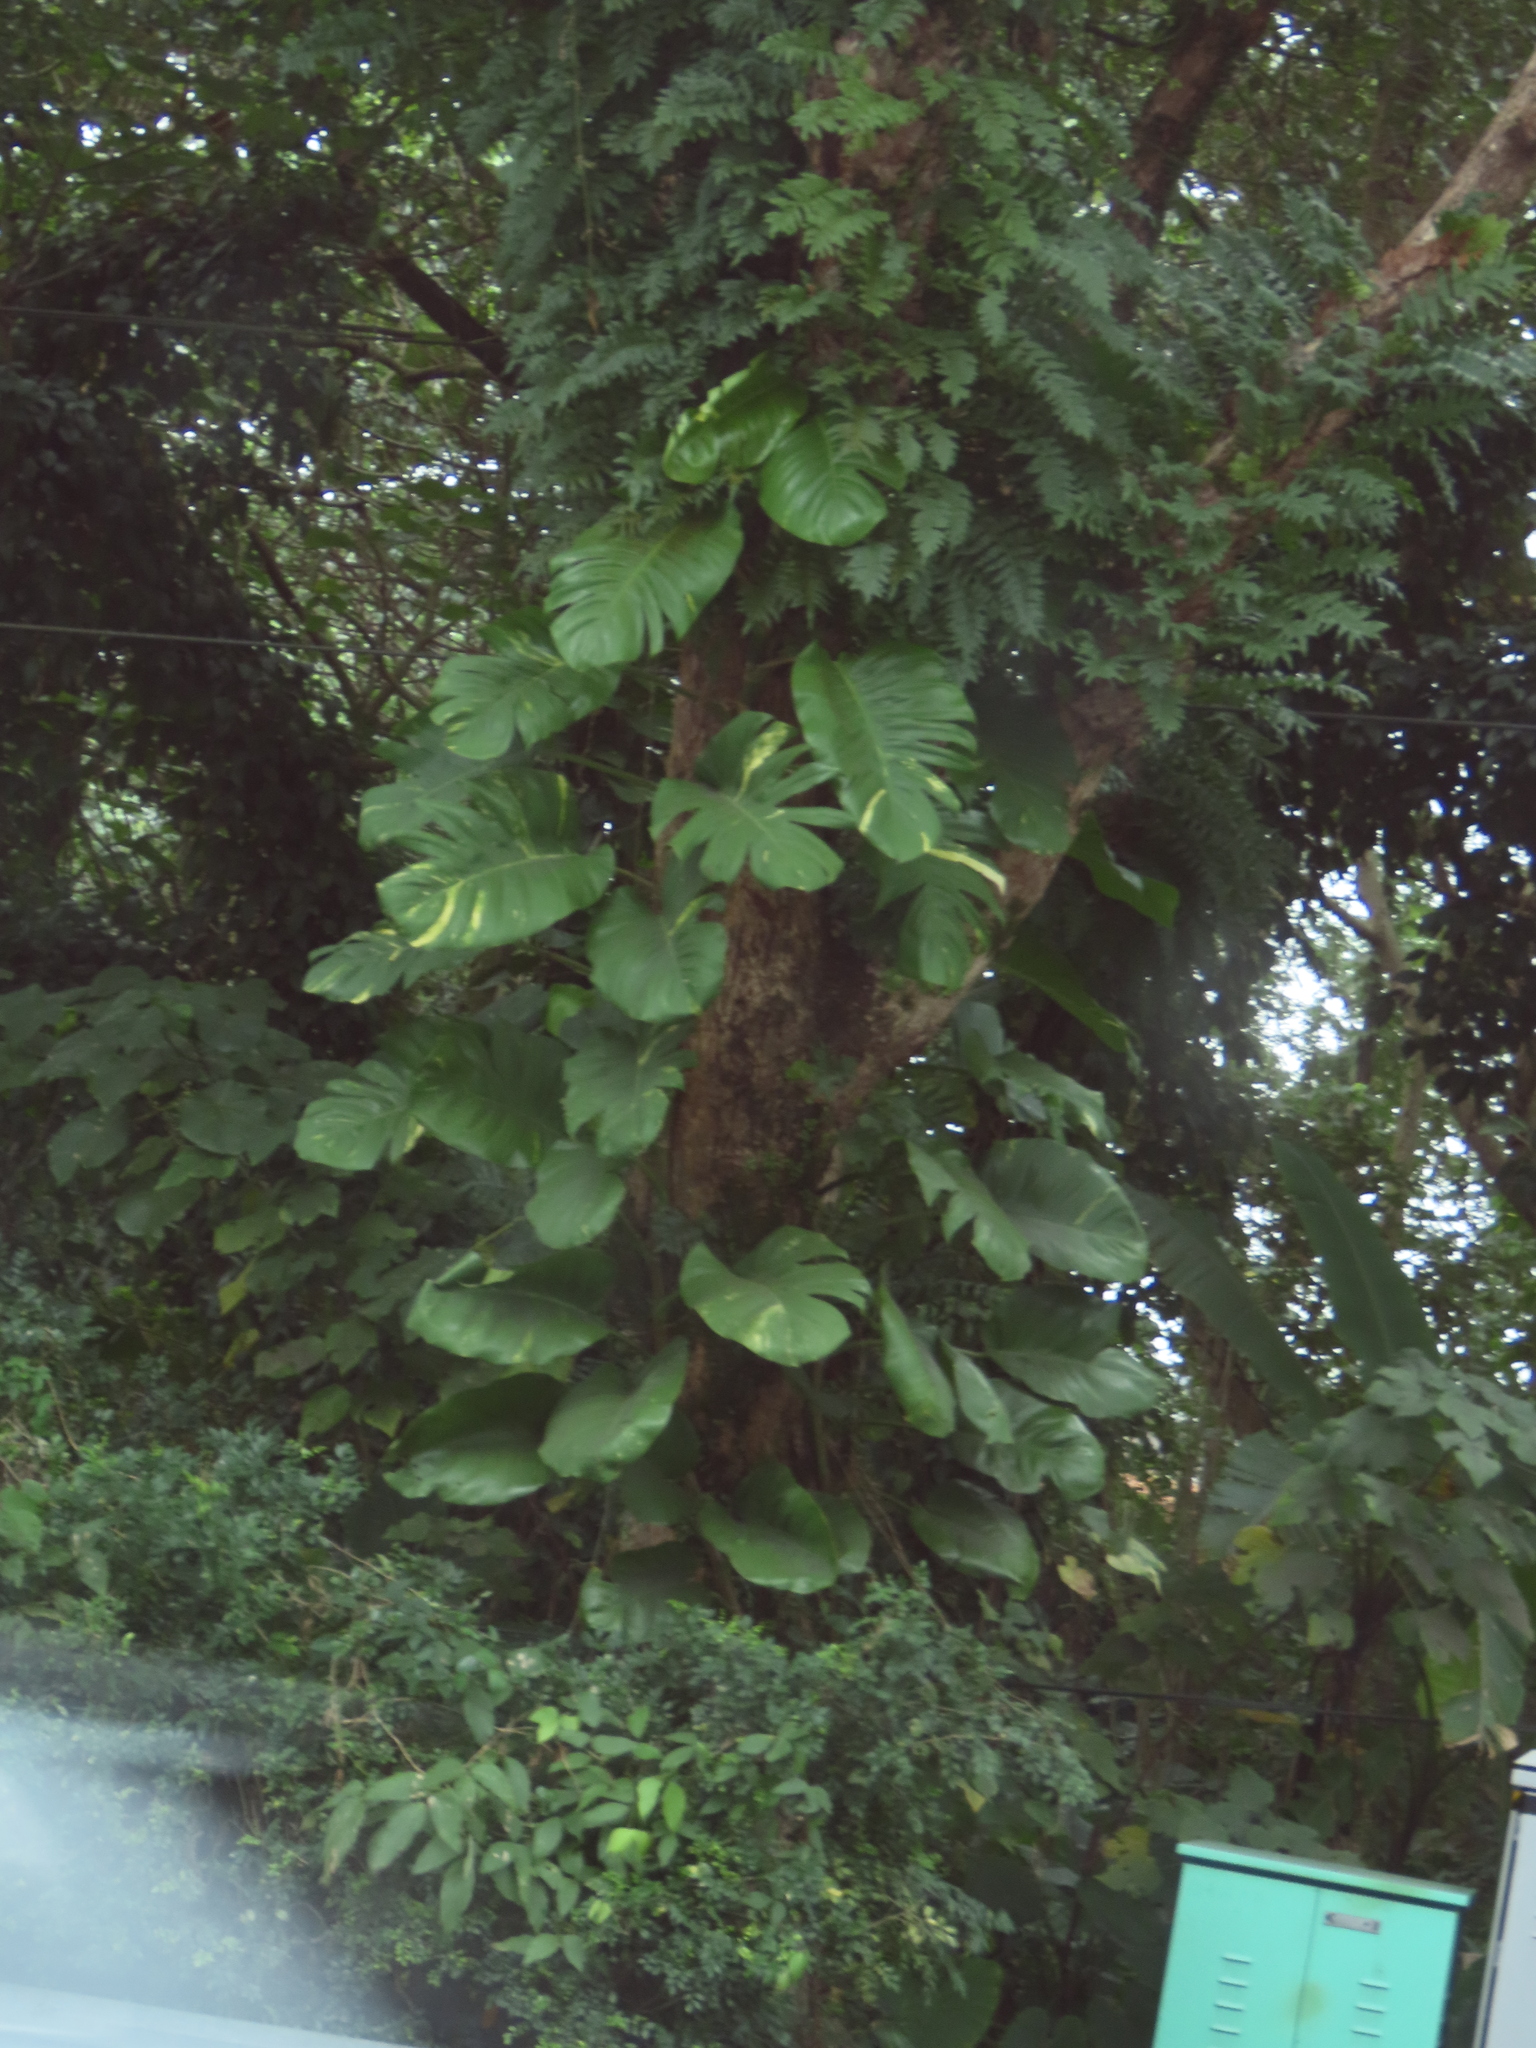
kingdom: Plantae
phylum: Tracheophyta
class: Liliopsida
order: Alismatales
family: Araceae
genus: Epipremnum
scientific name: Epipremnum aureum
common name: Golden hunter's-robe
